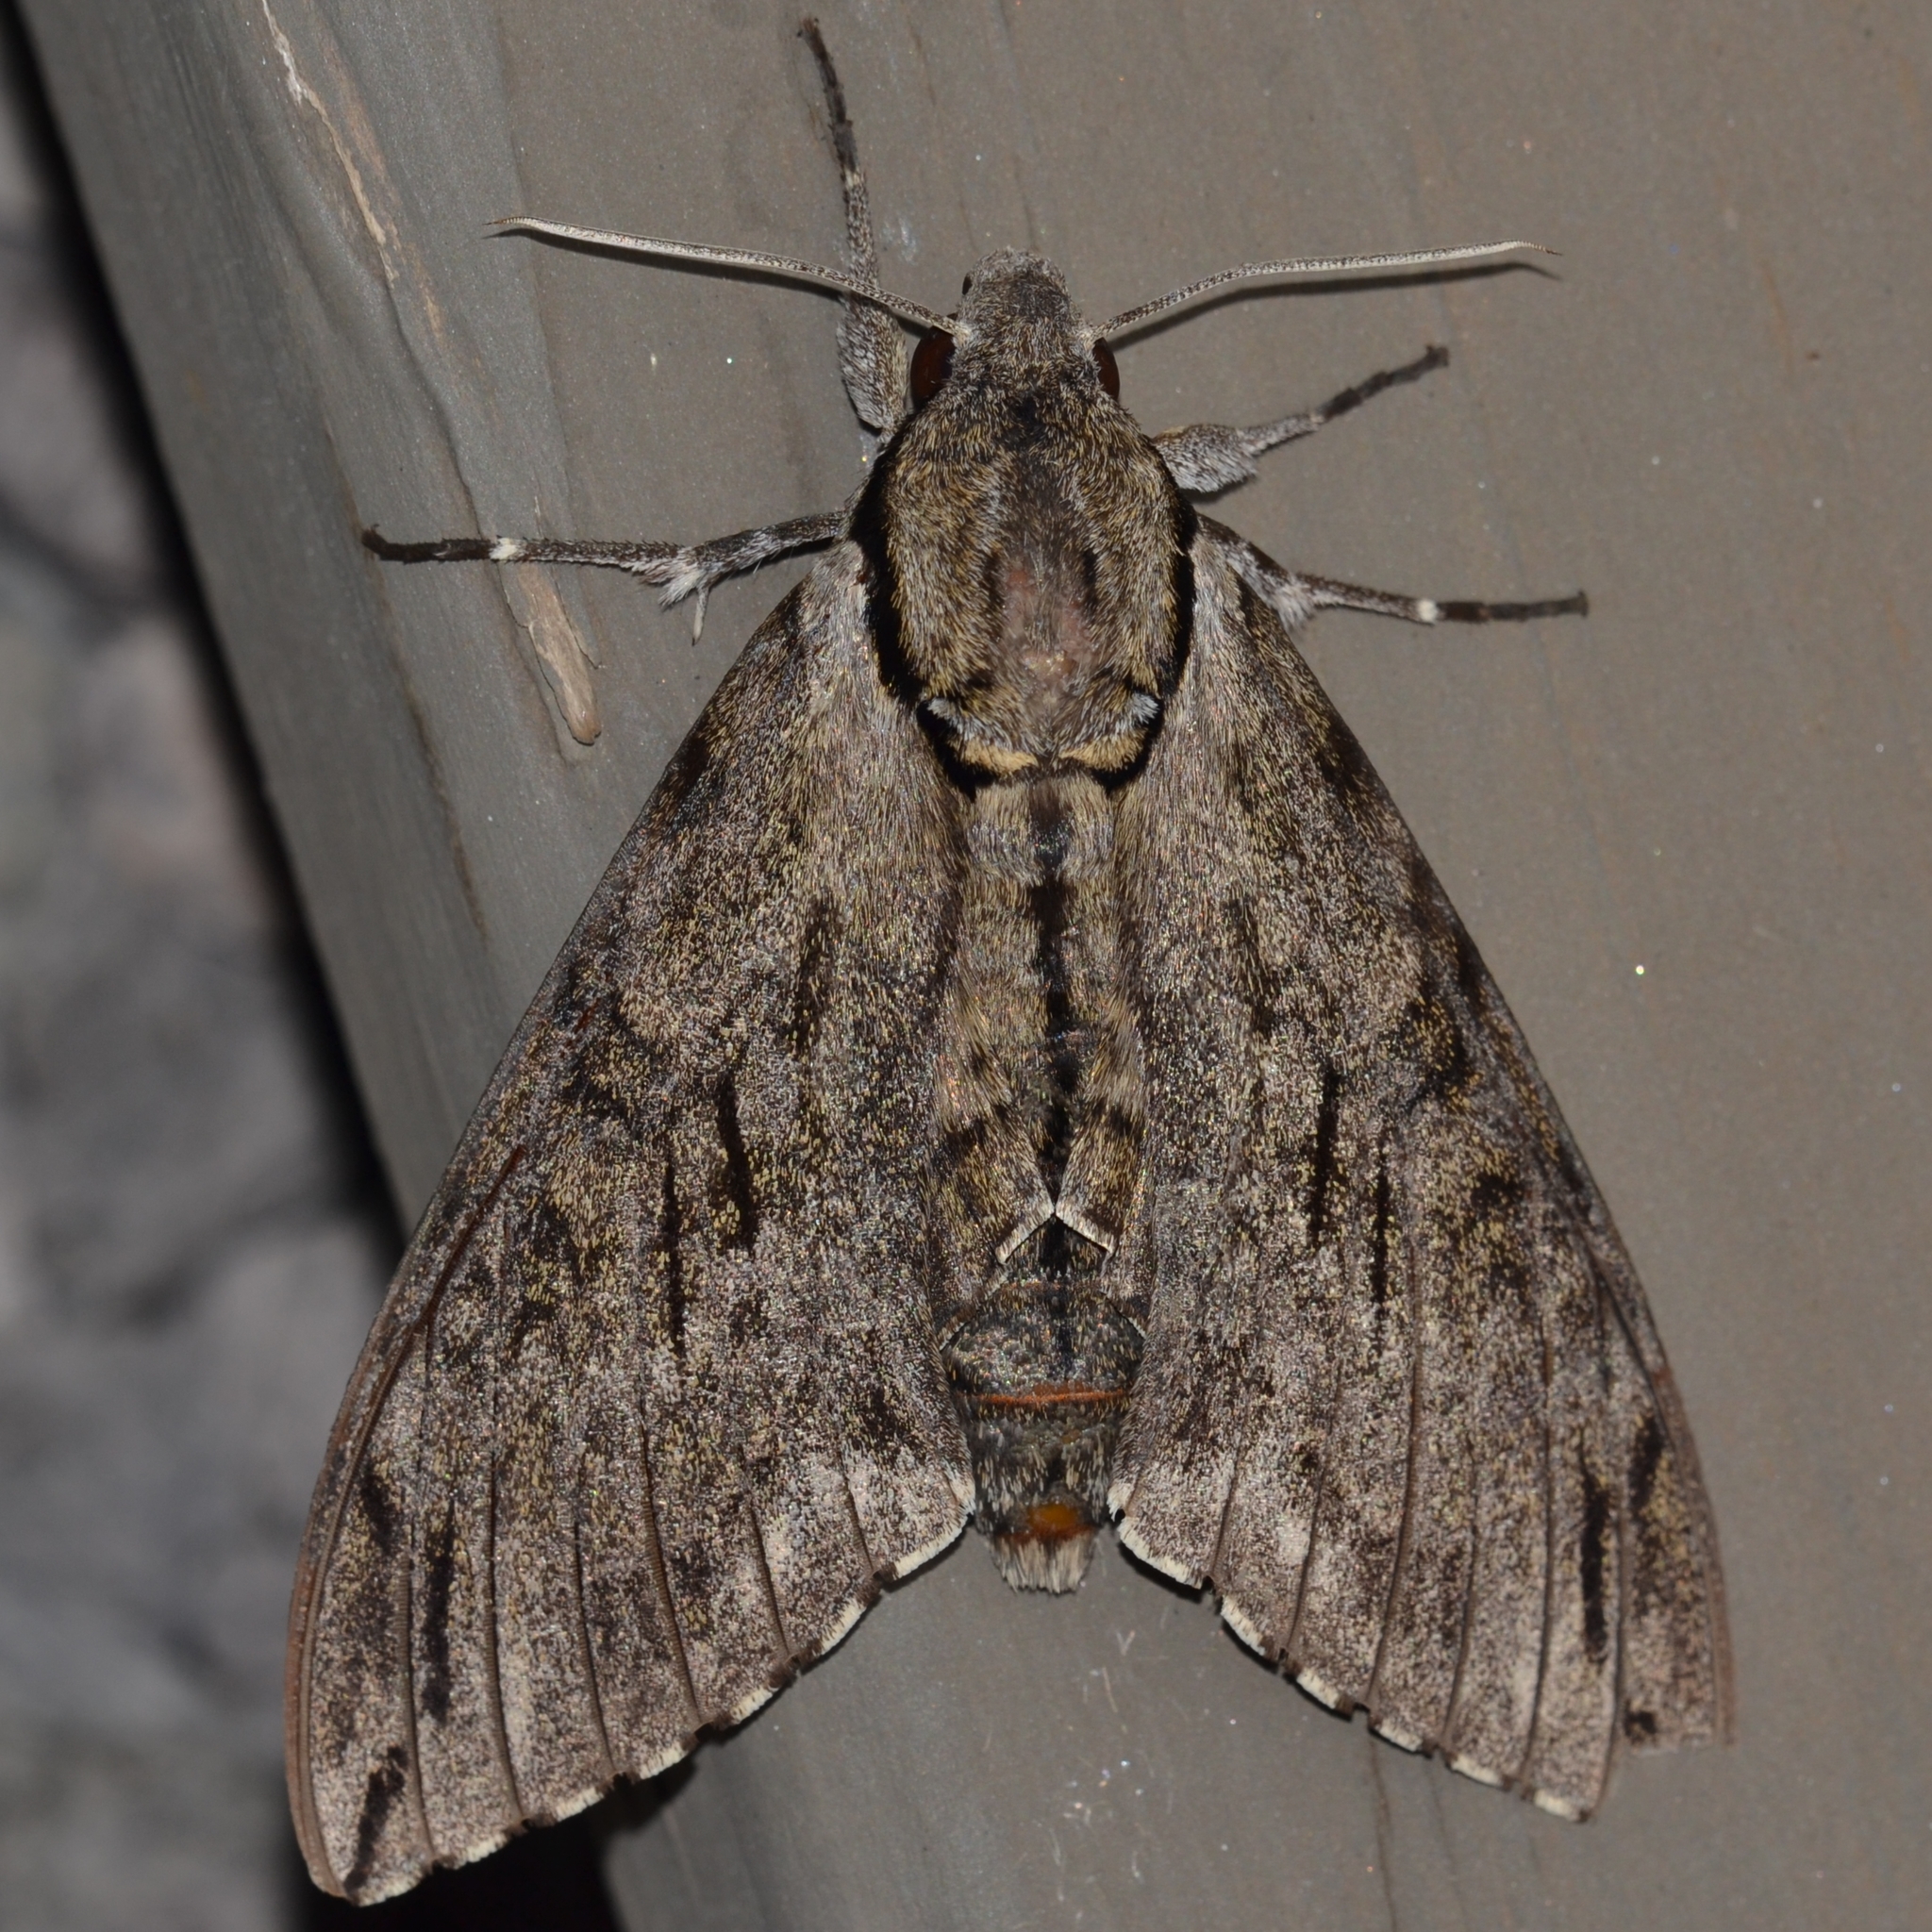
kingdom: Animalia
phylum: Arthropoda
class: Insecta
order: Lepidoptera
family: Sphingidae
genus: Psilogramma
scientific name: Psilogramma increta
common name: Gray hawk moth
